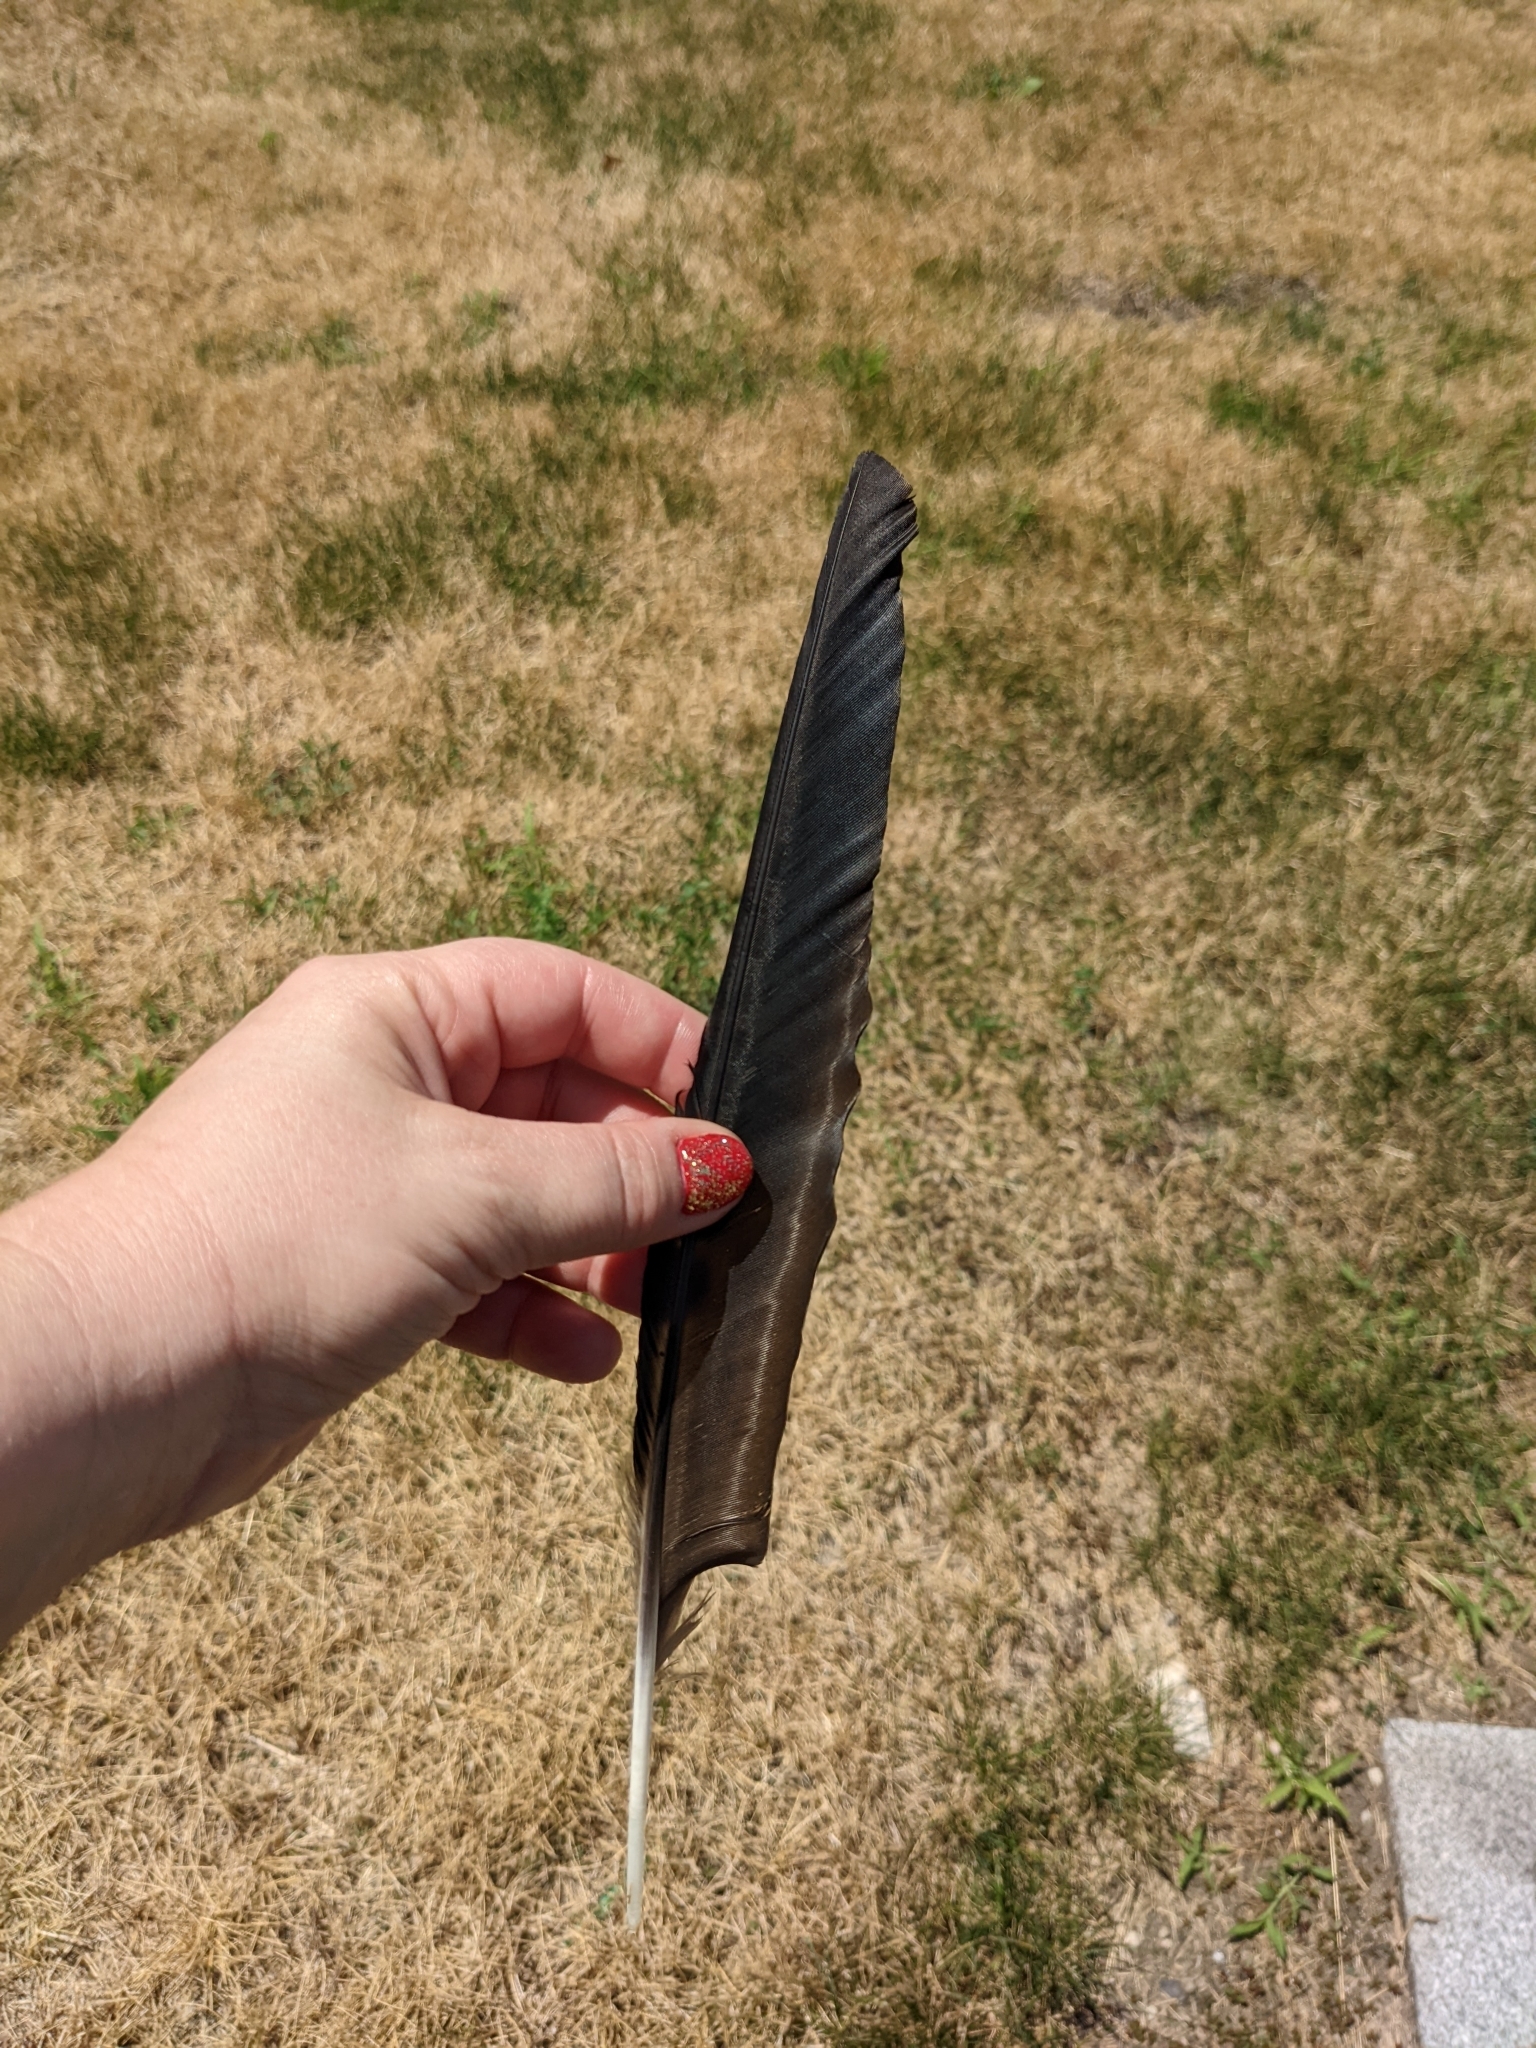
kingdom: Animalia
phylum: Chordata
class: Aves
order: Passeriformes
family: Corvidae
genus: Corvus
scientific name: Corvus brachyrhynchos
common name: American crow
